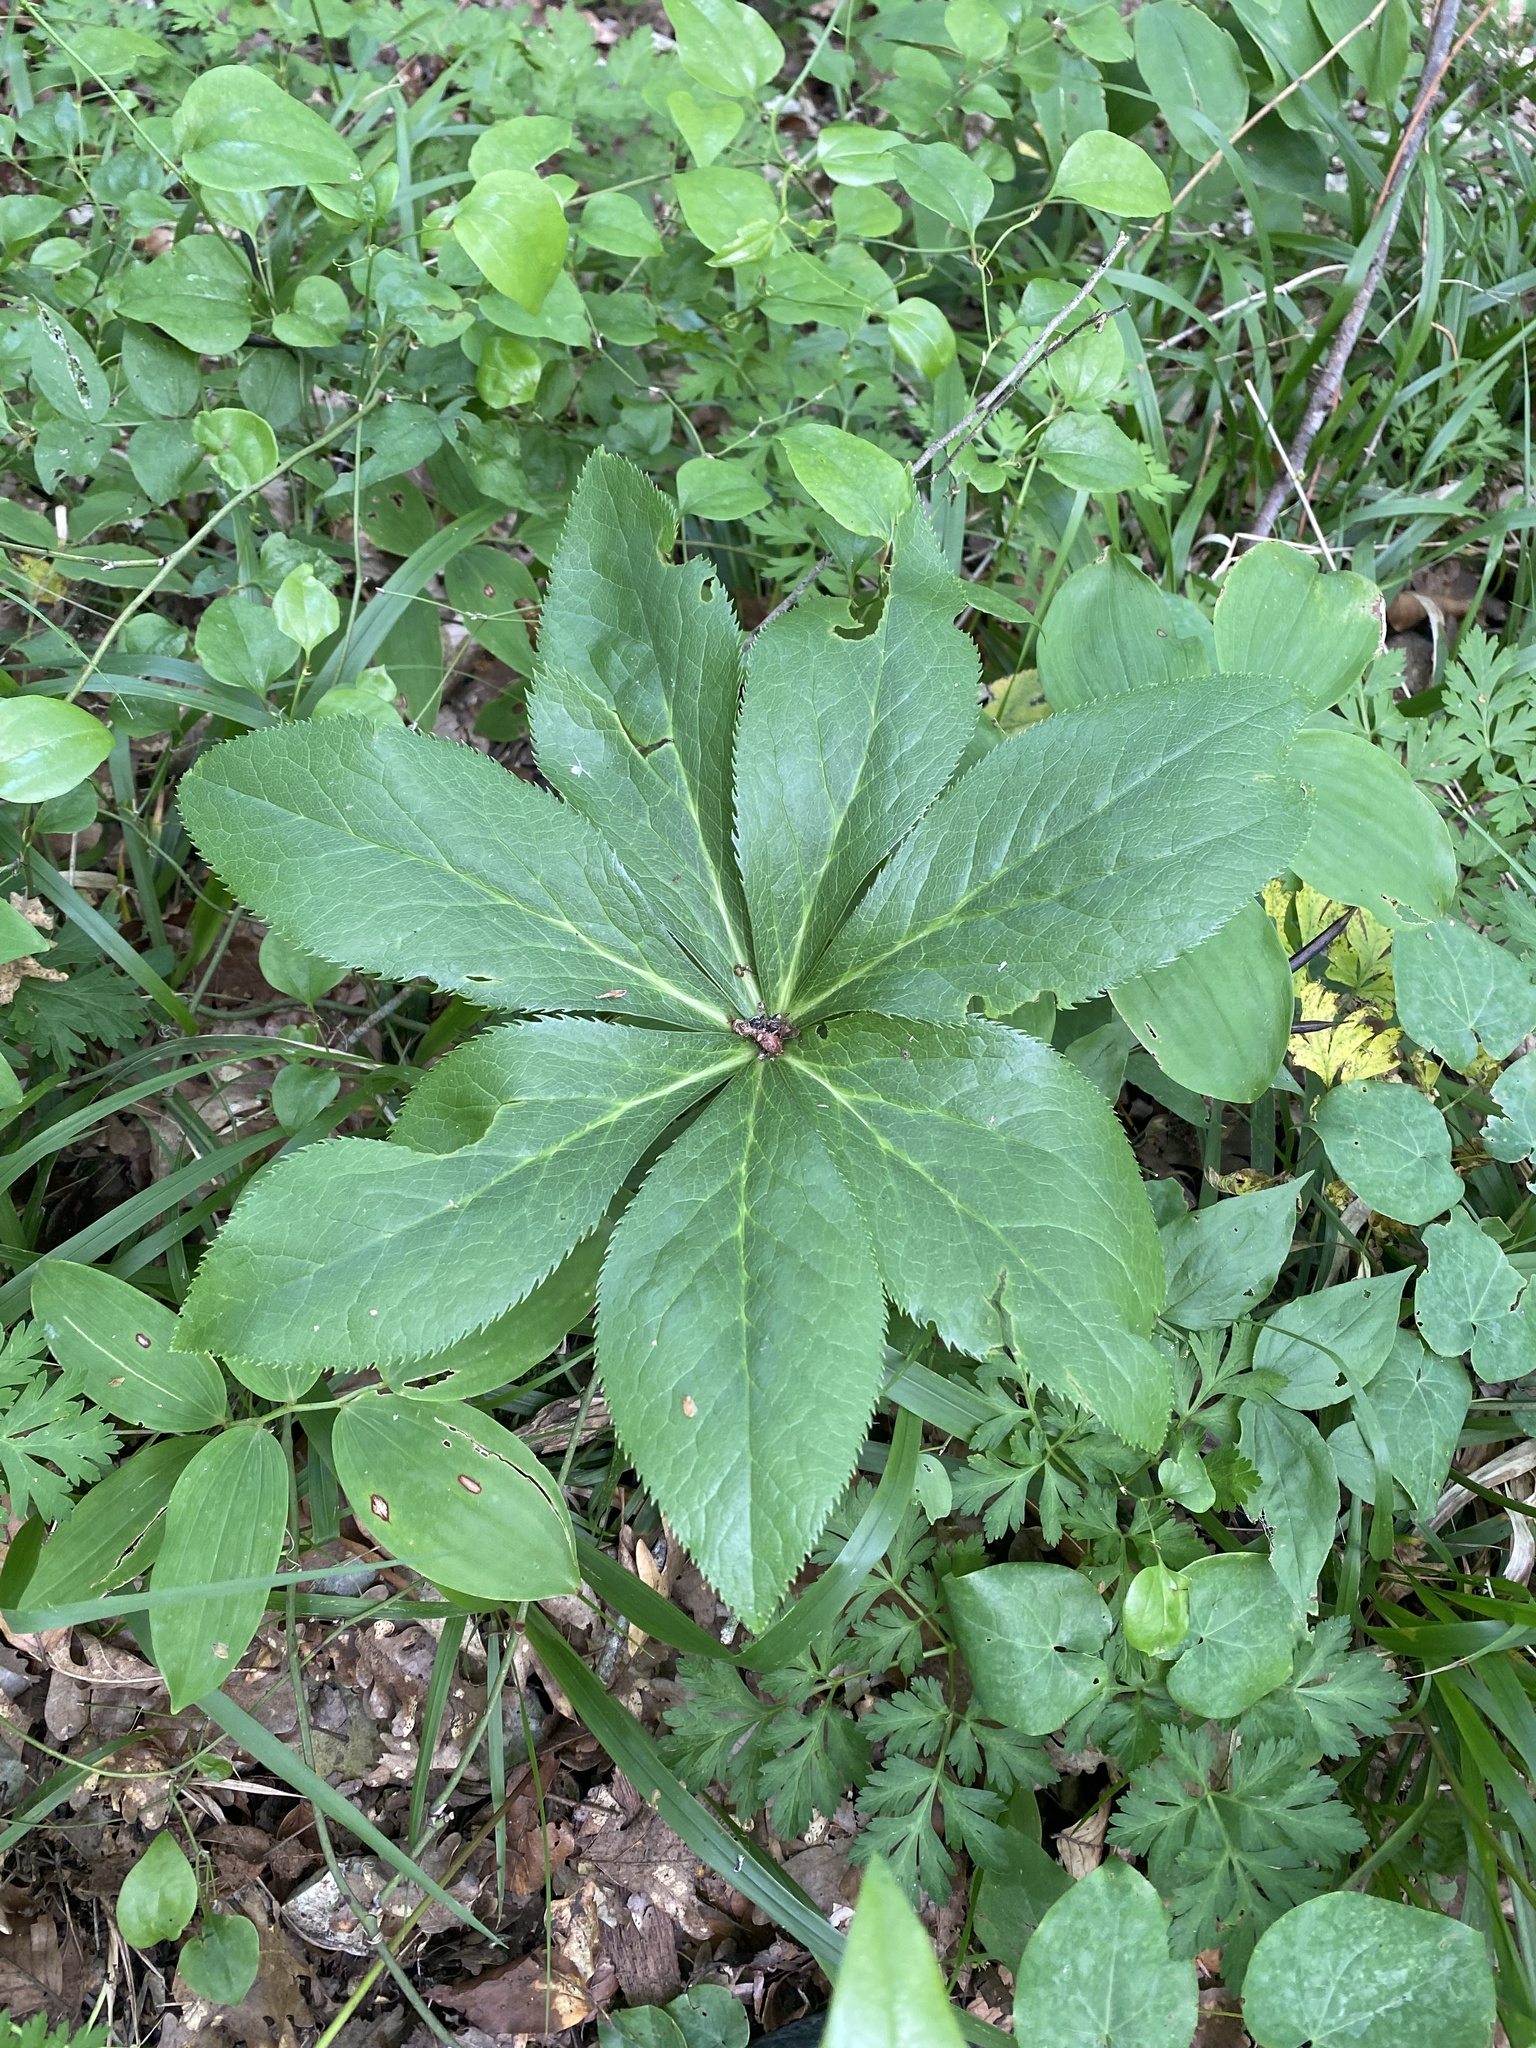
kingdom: Plantae
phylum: Tracheophyta
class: Magnoliopsida
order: Ranunculales
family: Ranunculaceae
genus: Helleborus
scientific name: Helleborus orientalis
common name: Lenten-rose
